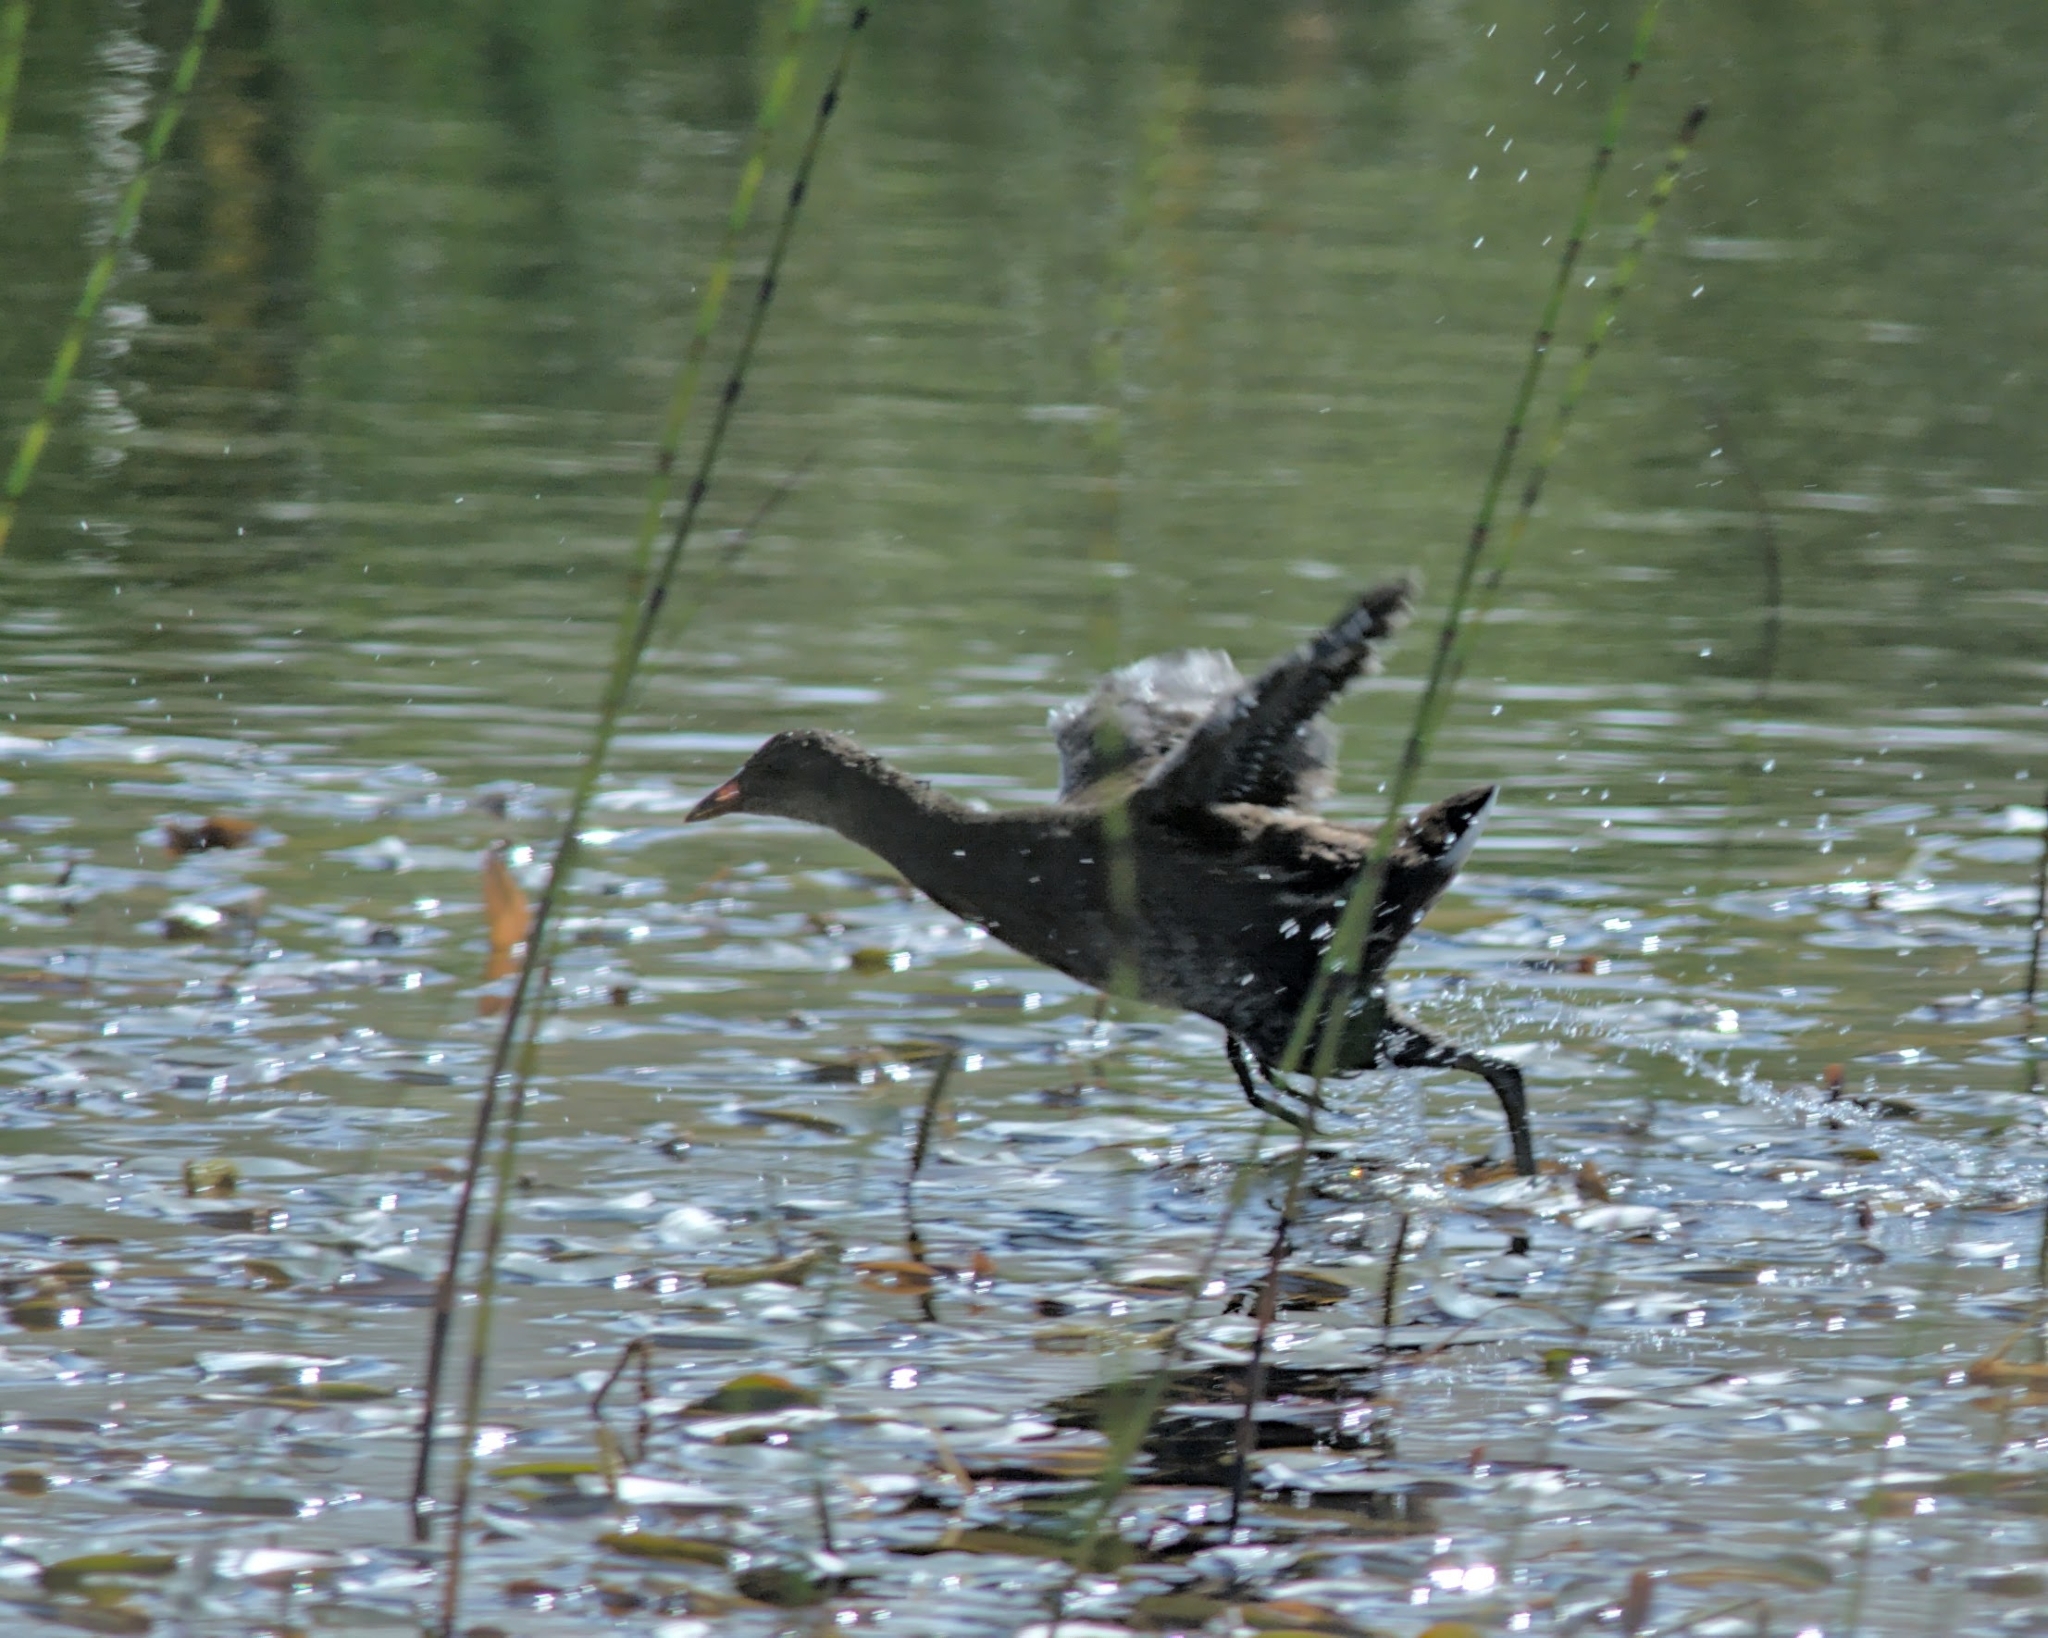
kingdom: Animalia
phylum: Chordata
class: Aves
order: Gruiformes
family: Rallidae
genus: Gallinula
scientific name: Gallinula chloropus
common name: Common moorhen
